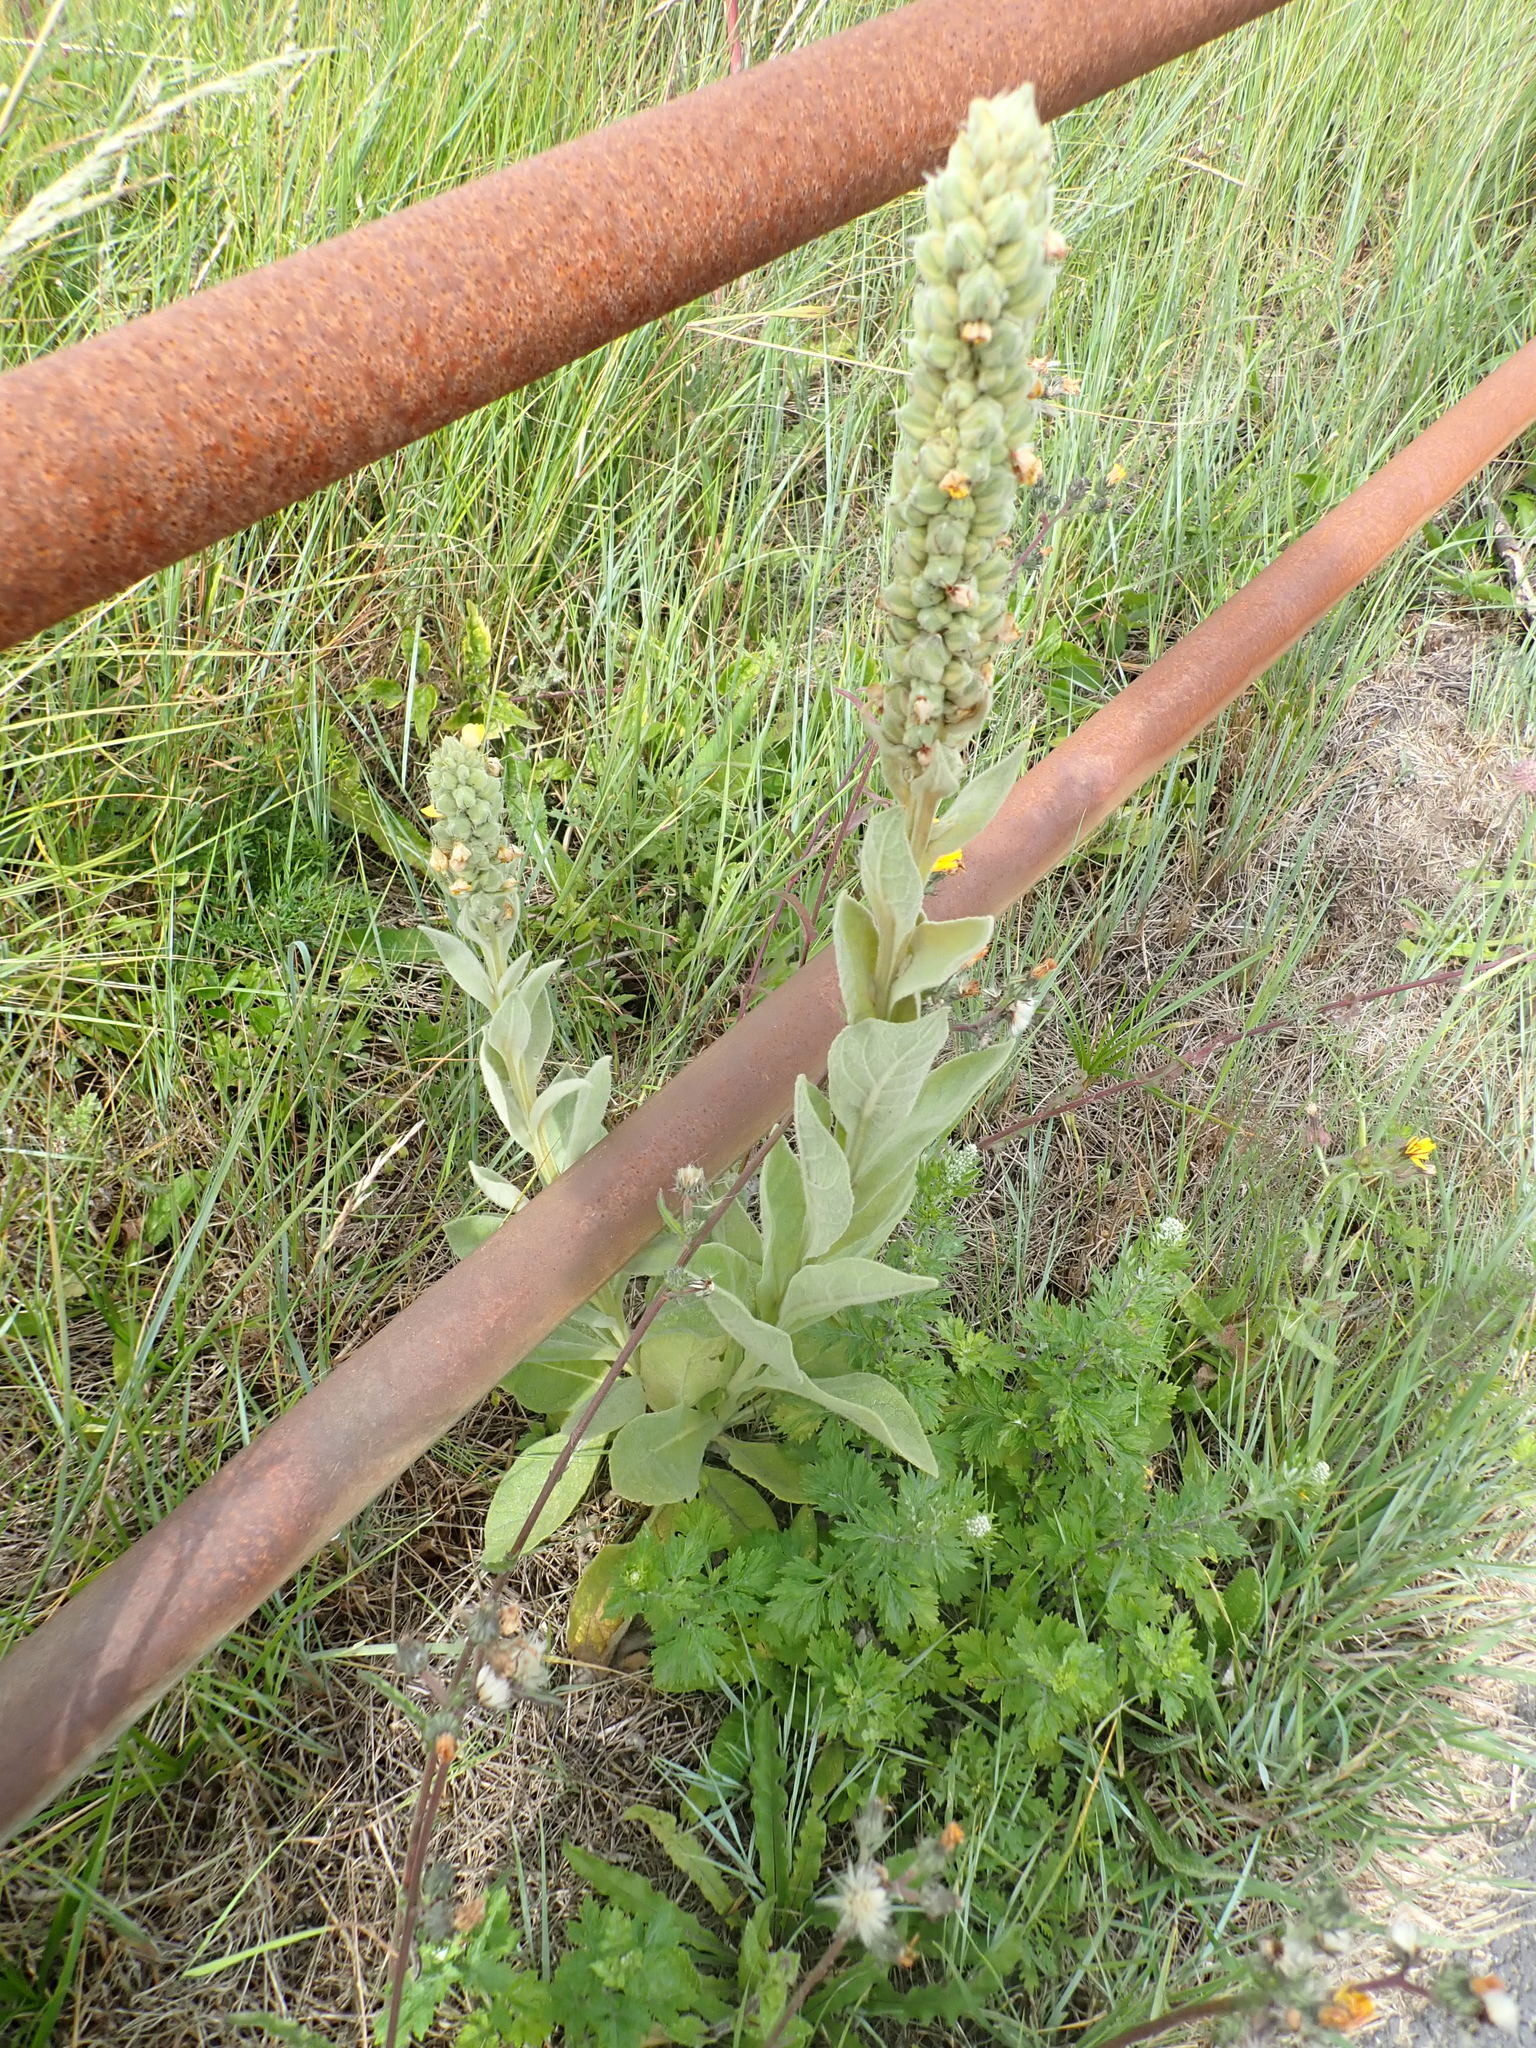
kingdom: Plantae
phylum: Tracheophyta
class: Magnoliopsida
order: Lamiales
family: Scrophulariaceae
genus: Verbascum
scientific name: Verbascum thapsus
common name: Common mullein
